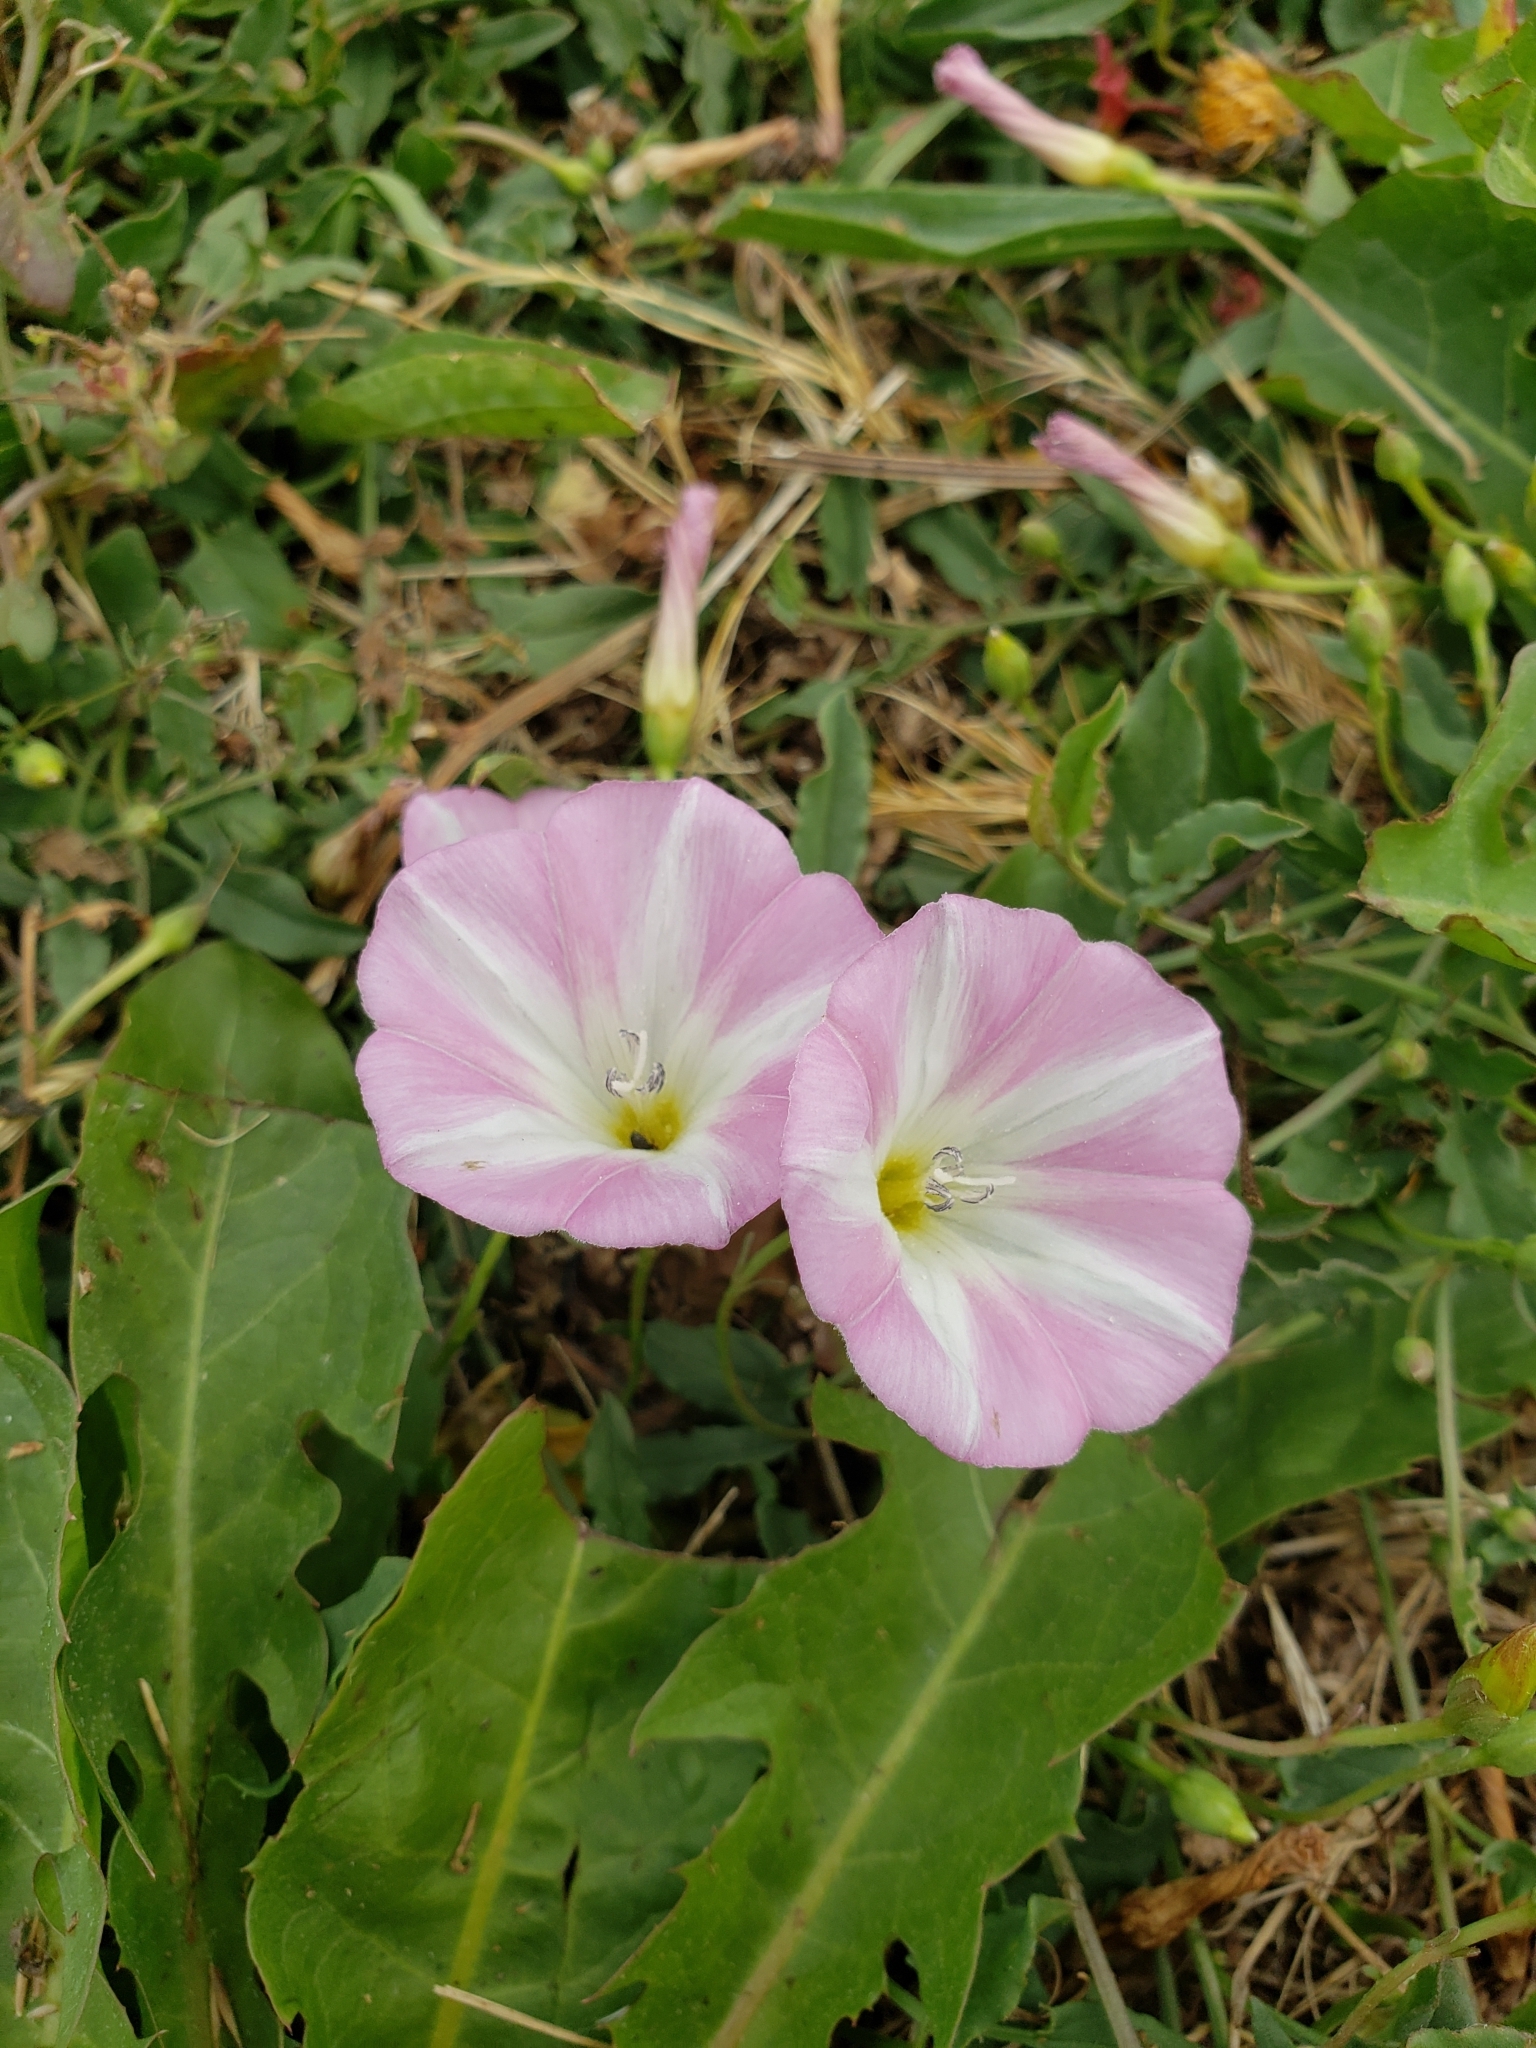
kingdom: Plantae
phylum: Tracheophyta
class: Magnoliopsida
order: Solanales
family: Convolvulaceae
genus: Convolvulus
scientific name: Convolvulus arvensis
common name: Field bindweed
